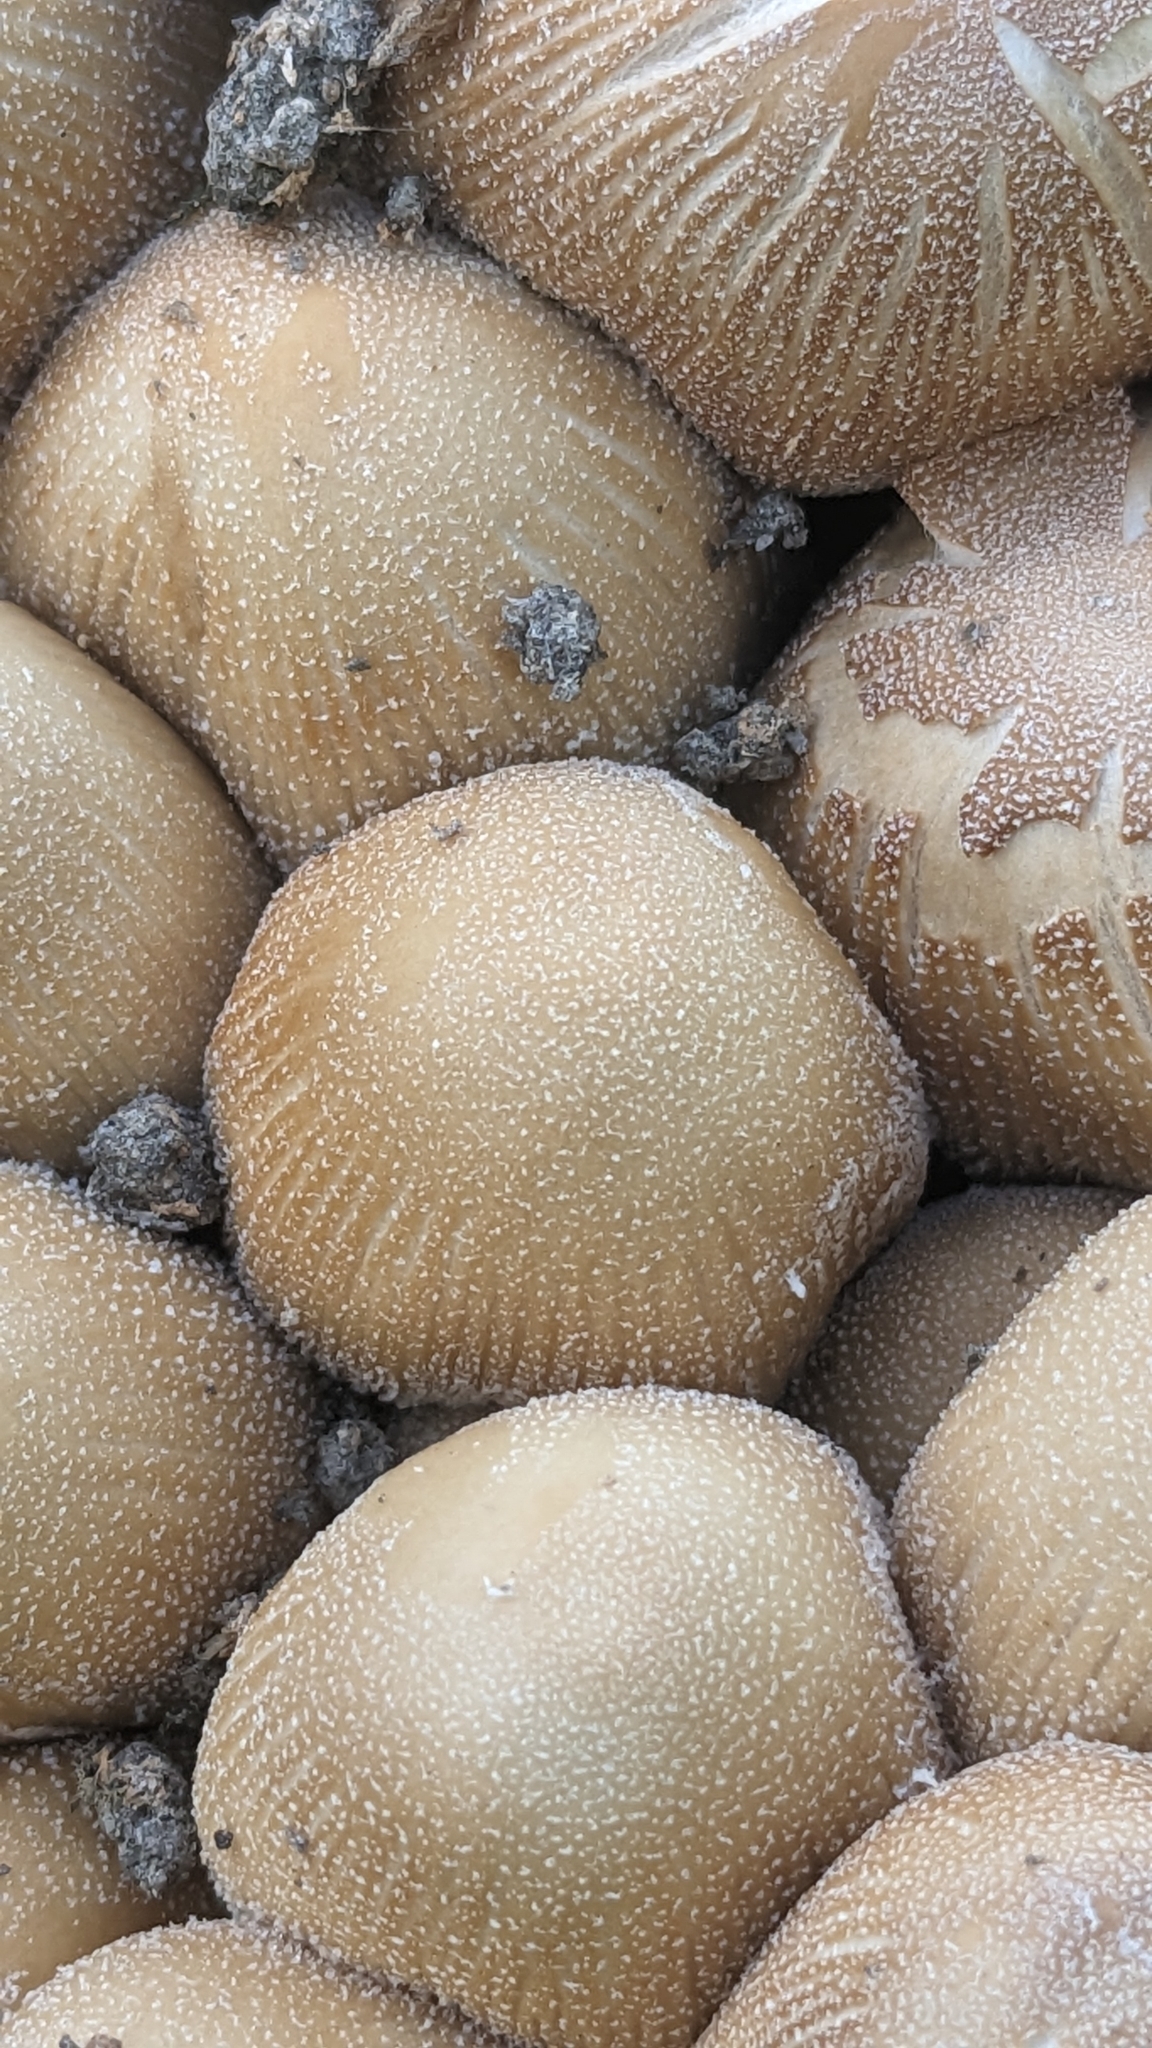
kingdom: Fungi
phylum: Basidiomycota
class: Agaricomycetes
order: Agaricales
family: Psathyrellaceae
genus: Coprinellus
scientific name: Coprinellus micaceus
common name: Glistening ink-cap
